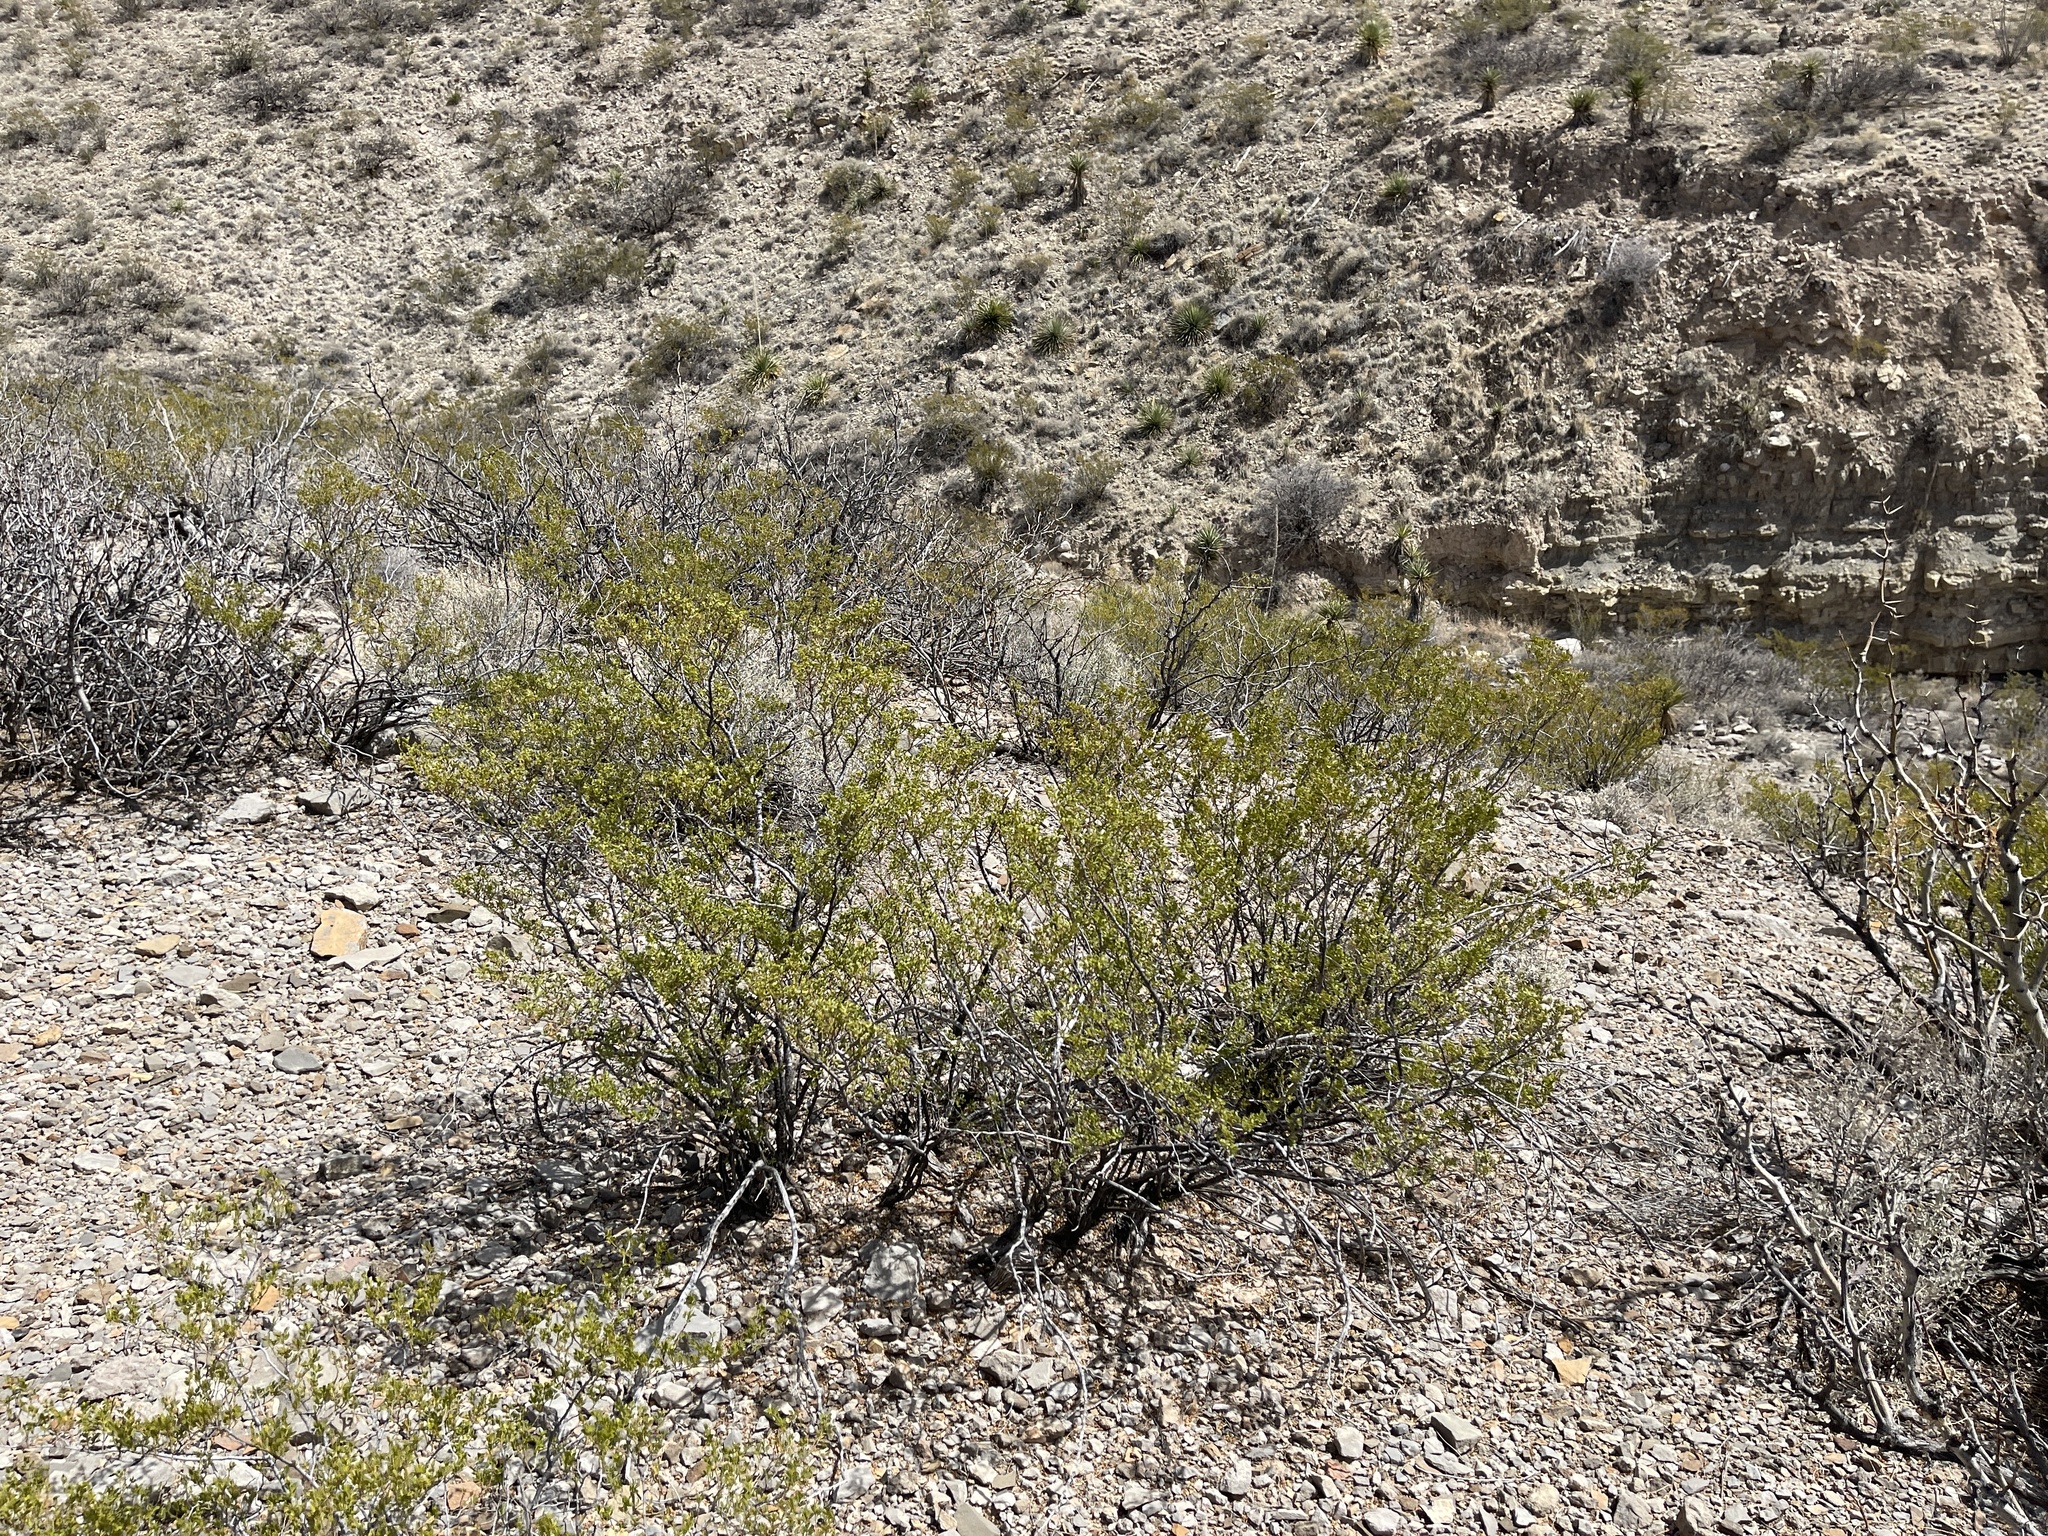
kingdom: Plantae
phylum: Tracheophyta
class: Magnoliopsida
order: Zygophyllales
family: Zygophyllaceae
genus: Larrea
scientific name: Larrea tridentata
